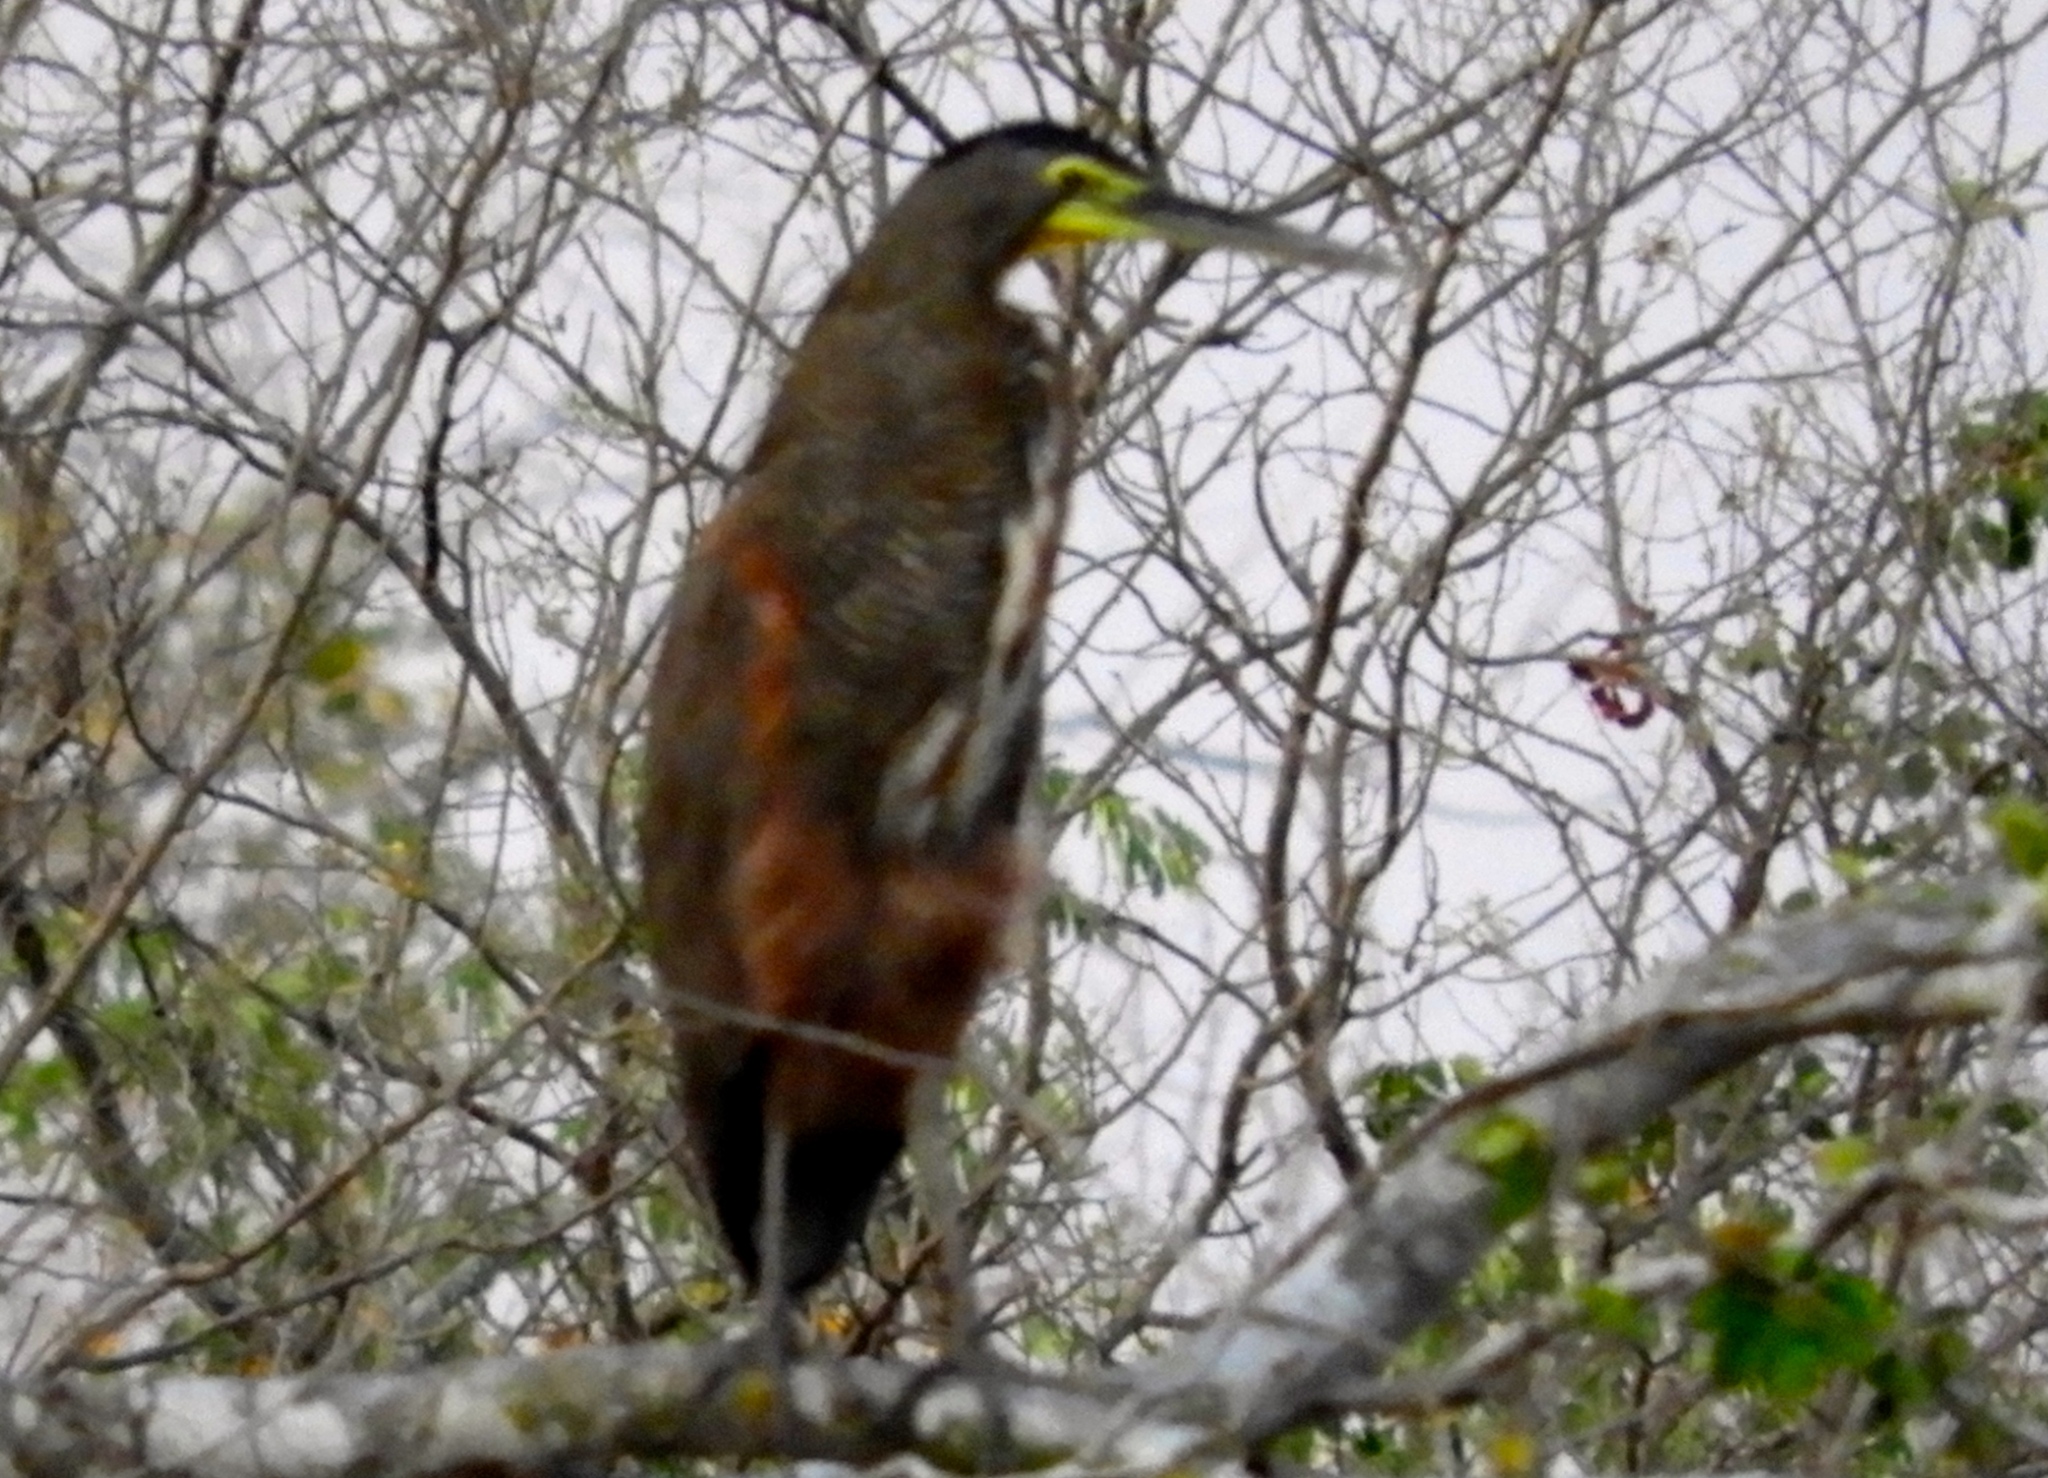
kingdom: Animalia
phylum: Chordata
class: Aves
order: Pelecaniformes
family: Ardeidae
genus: Tigrisoma
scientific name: Tigrisoma mexicanum
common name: Bare-throated tiger-heron
